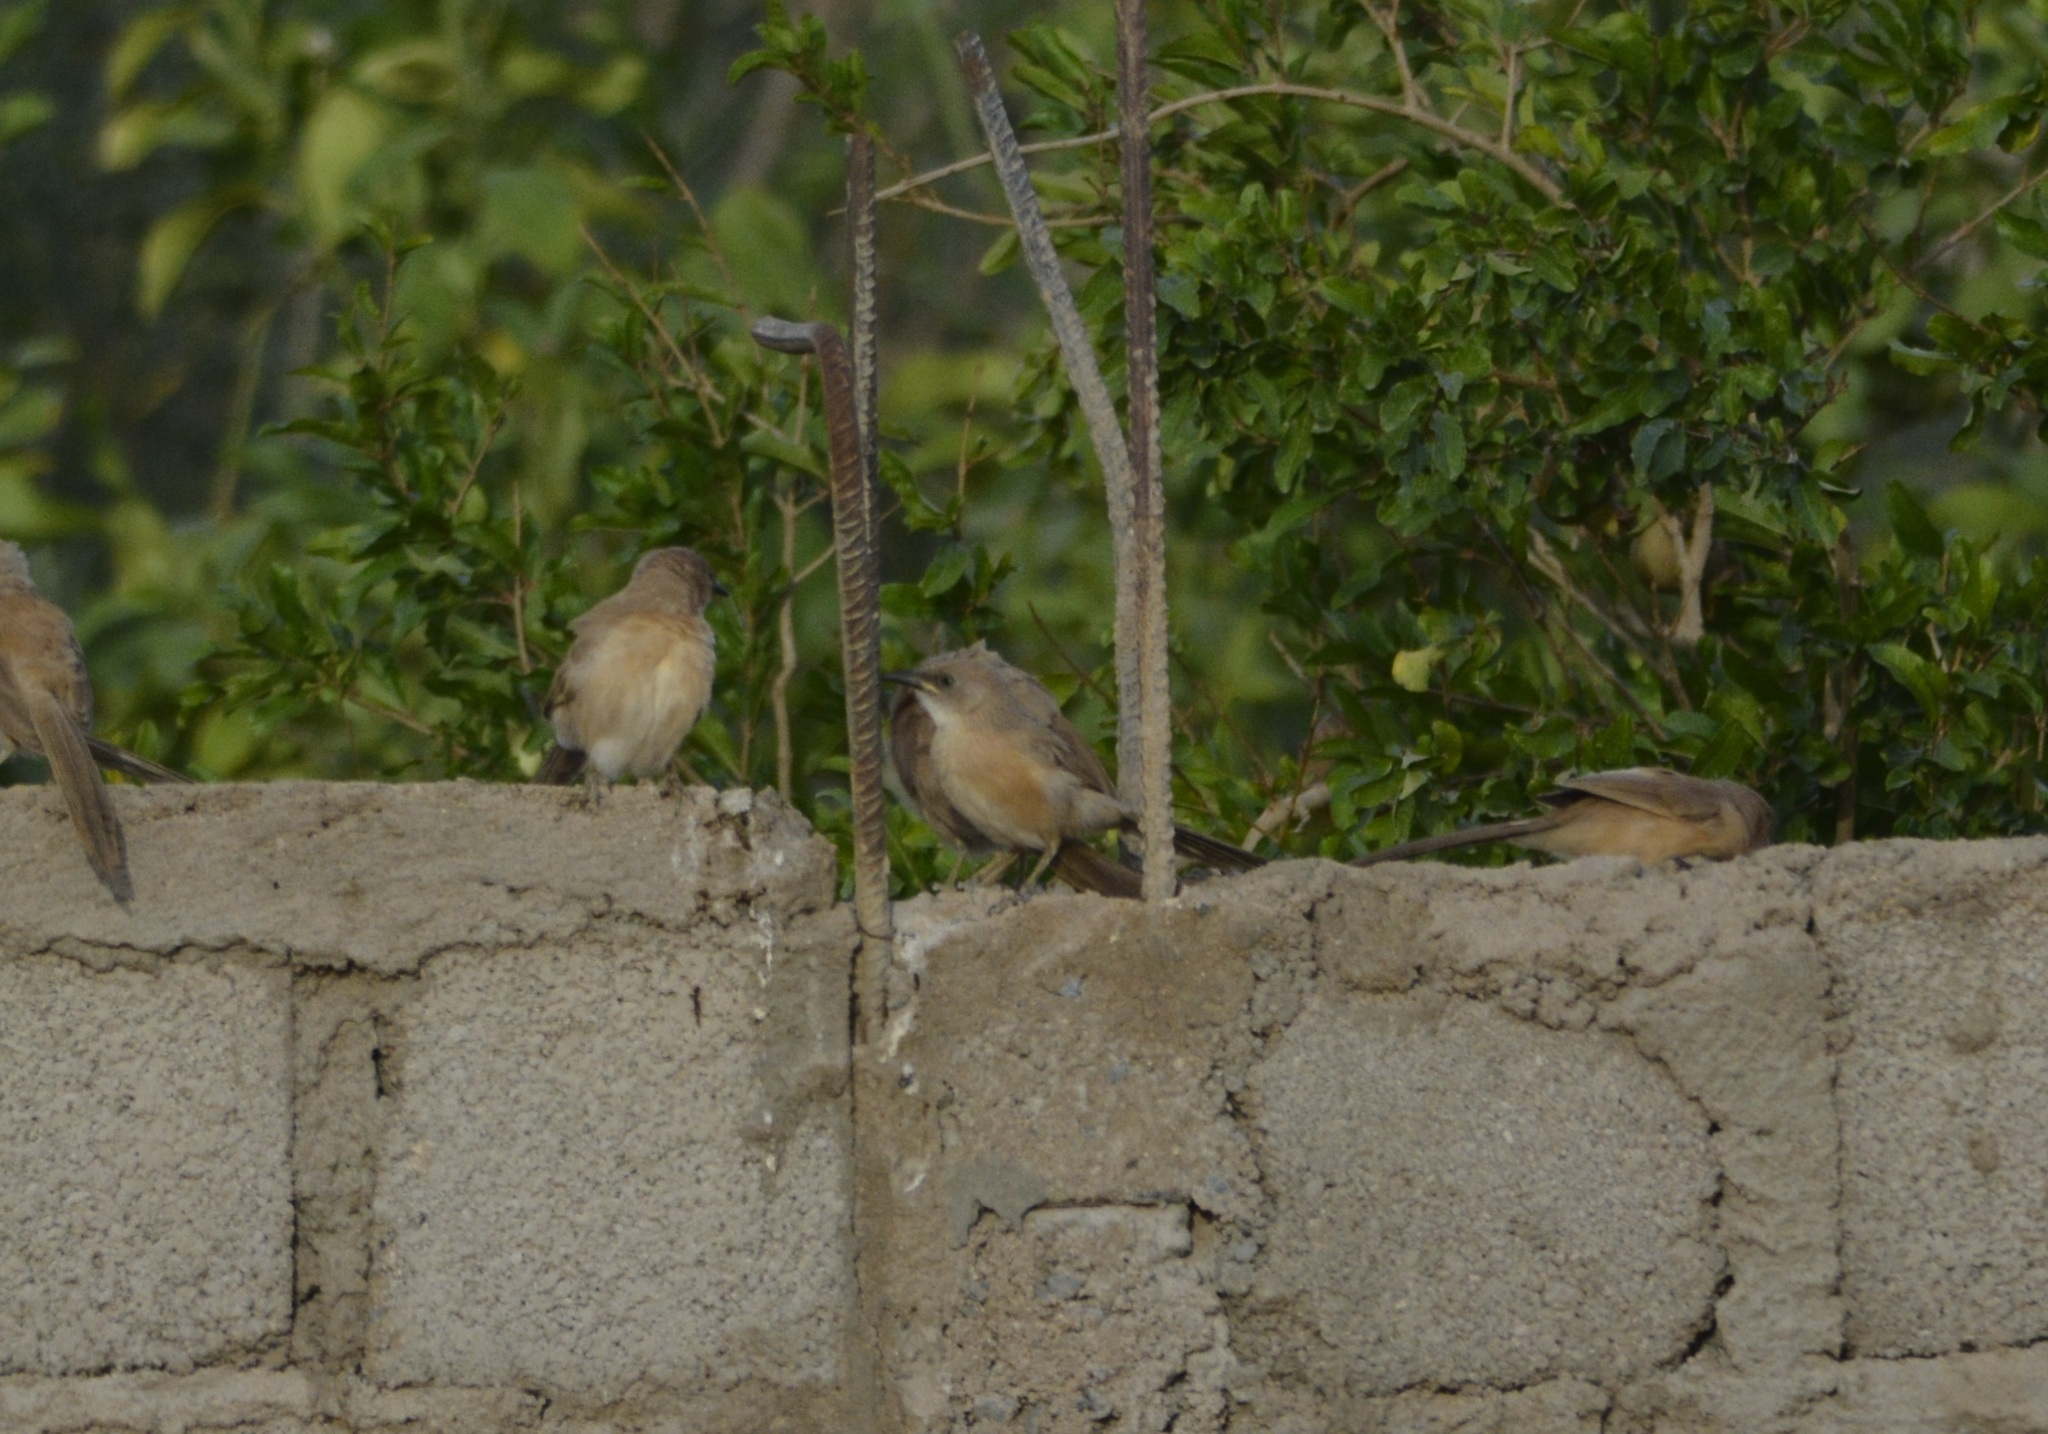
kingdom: Animalia
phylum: Chordata
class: Aves
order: Passeriformes
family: Leiothrichidae
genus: Turdoides
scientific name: Turdoides fulva
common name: Fulvous babbler
